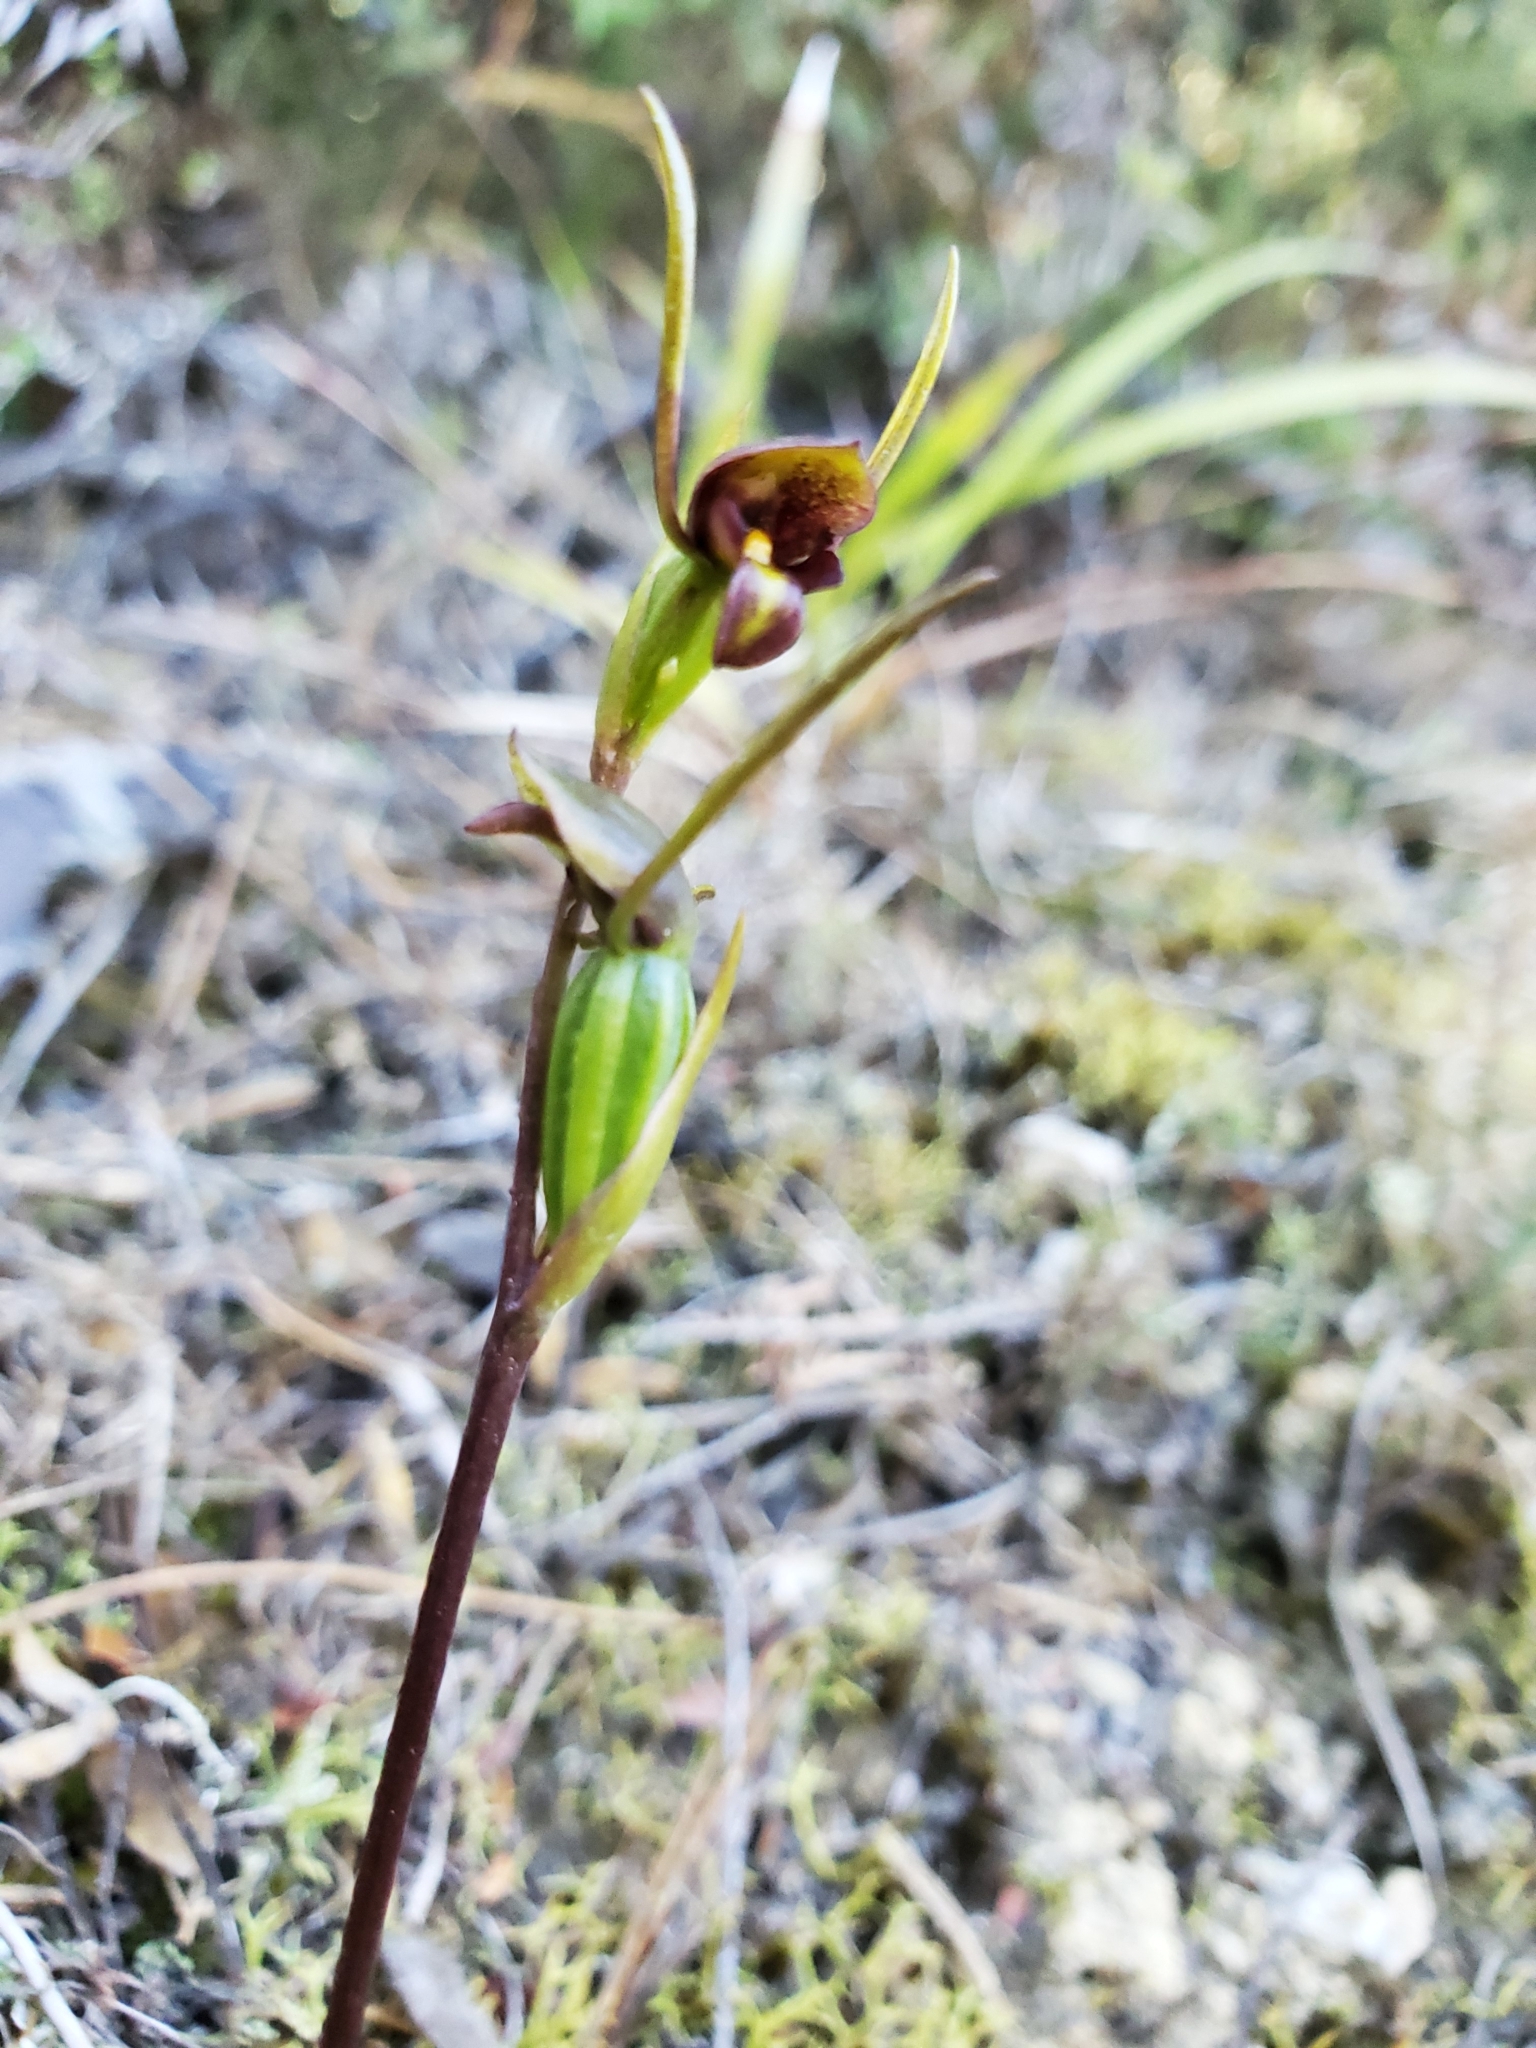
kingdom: Plantae
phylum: Tracheophyta
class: Liliopsida
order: Asparagales
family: Orchidaceae
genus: Orthoceras
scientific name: Orthoceras novae-zeelandiae
